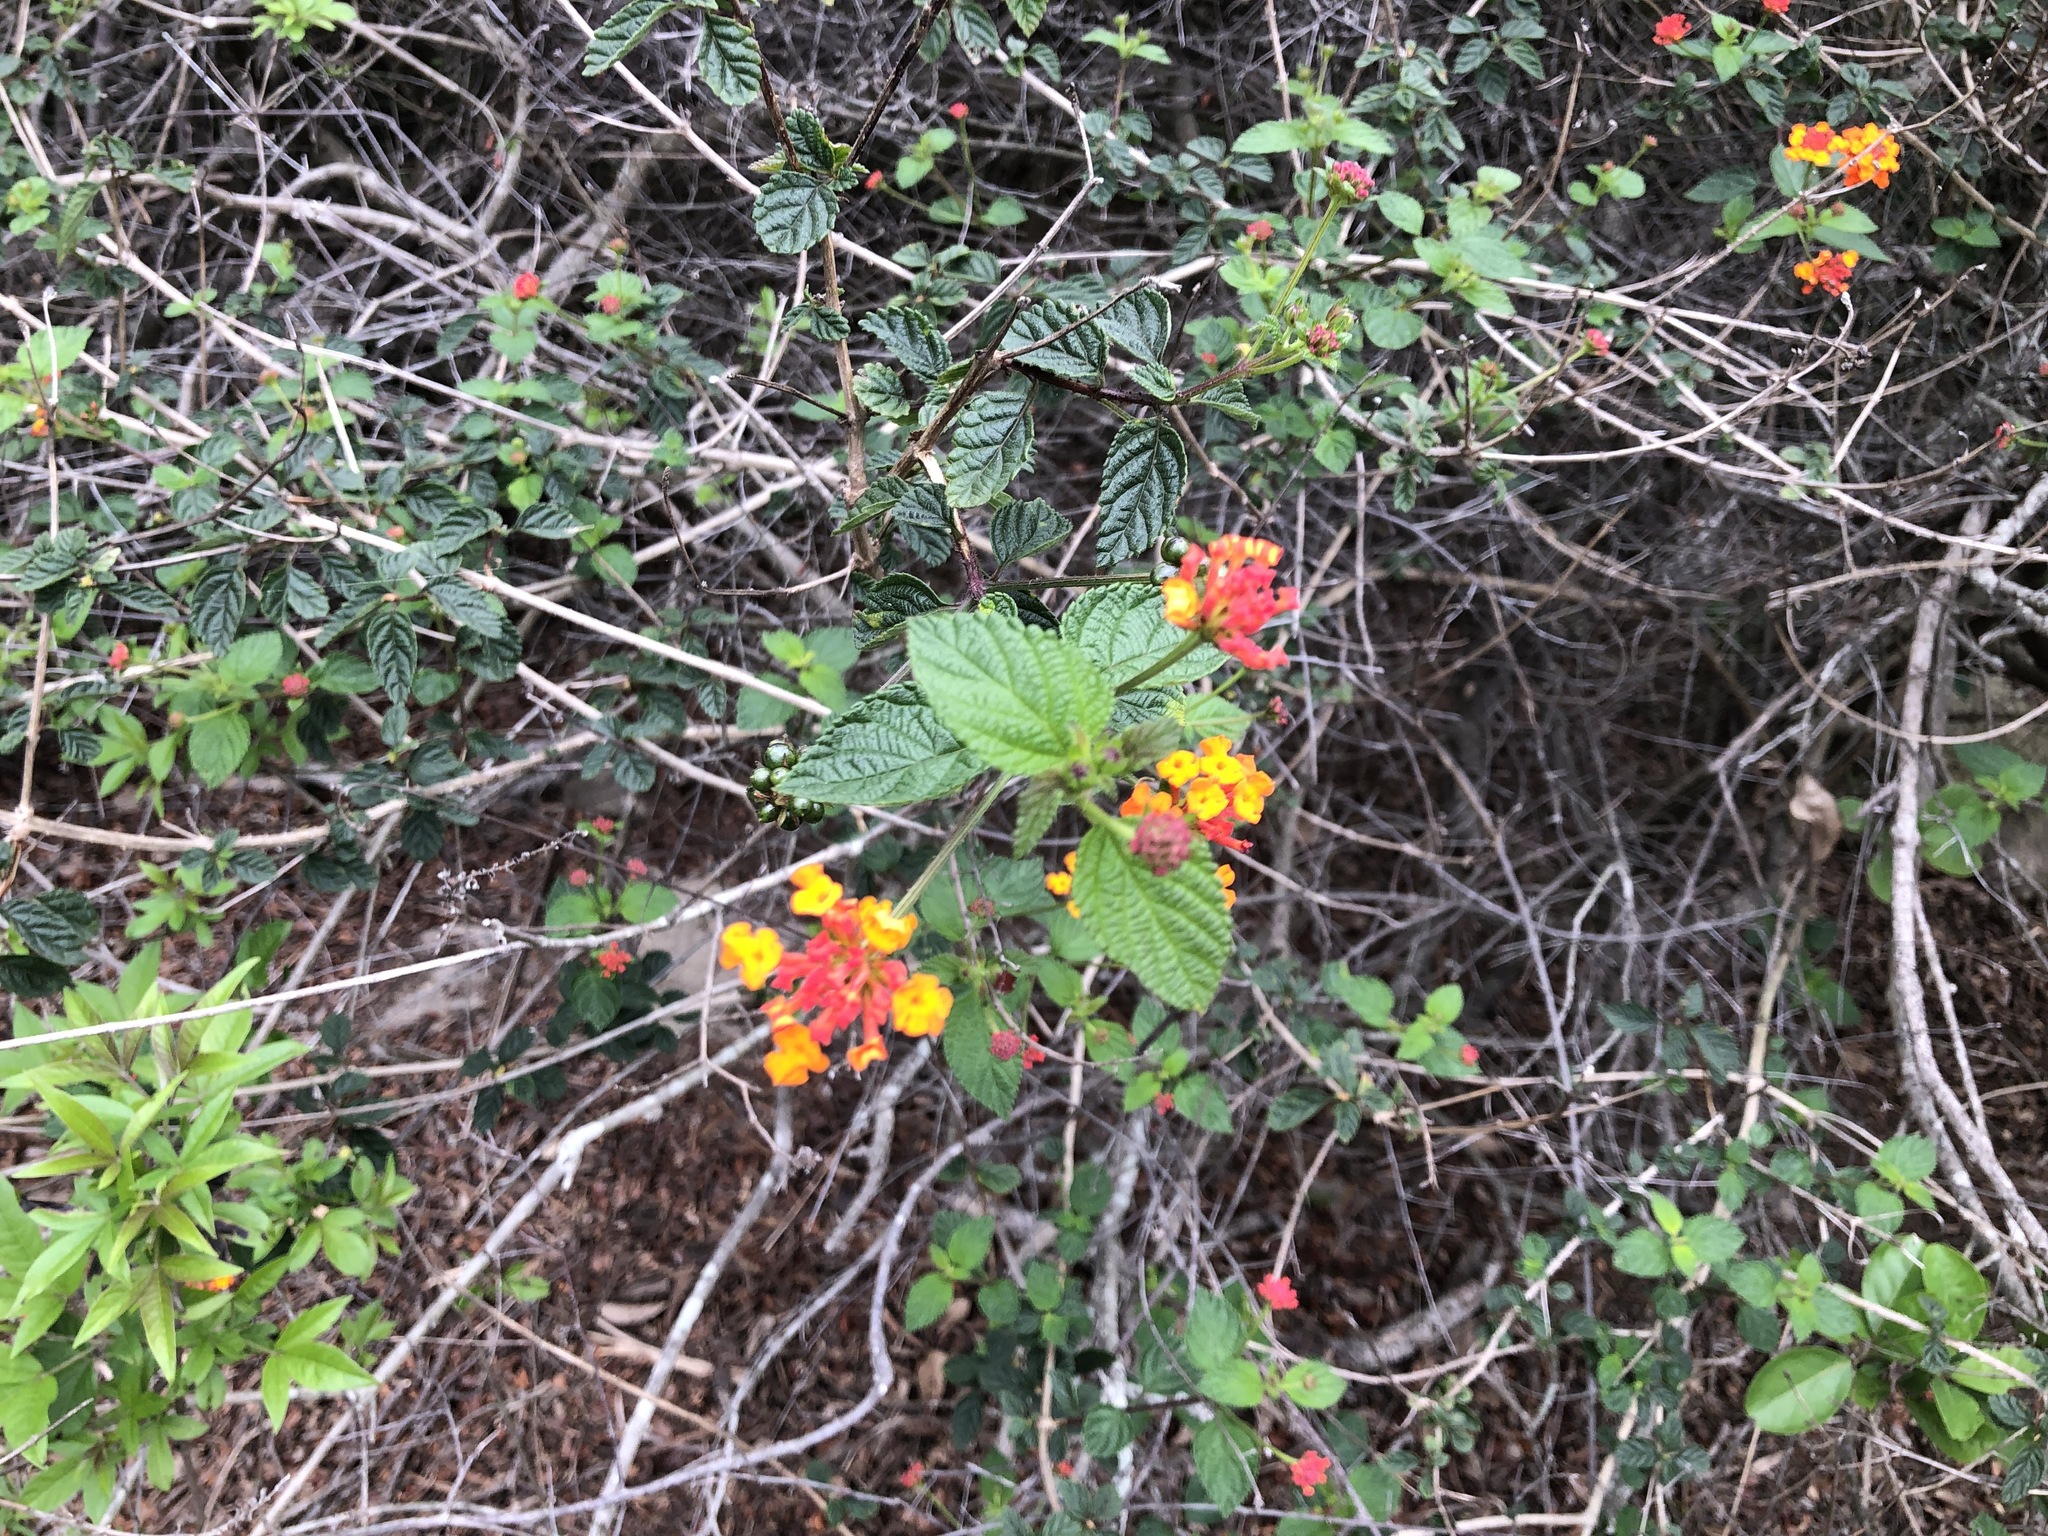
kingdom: Plantae
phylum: Tracheophyta
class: Magnoliopsida
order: Lamiales
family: Verbenaceae
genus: Lantana
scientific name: Lantana camara
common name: Lantana
